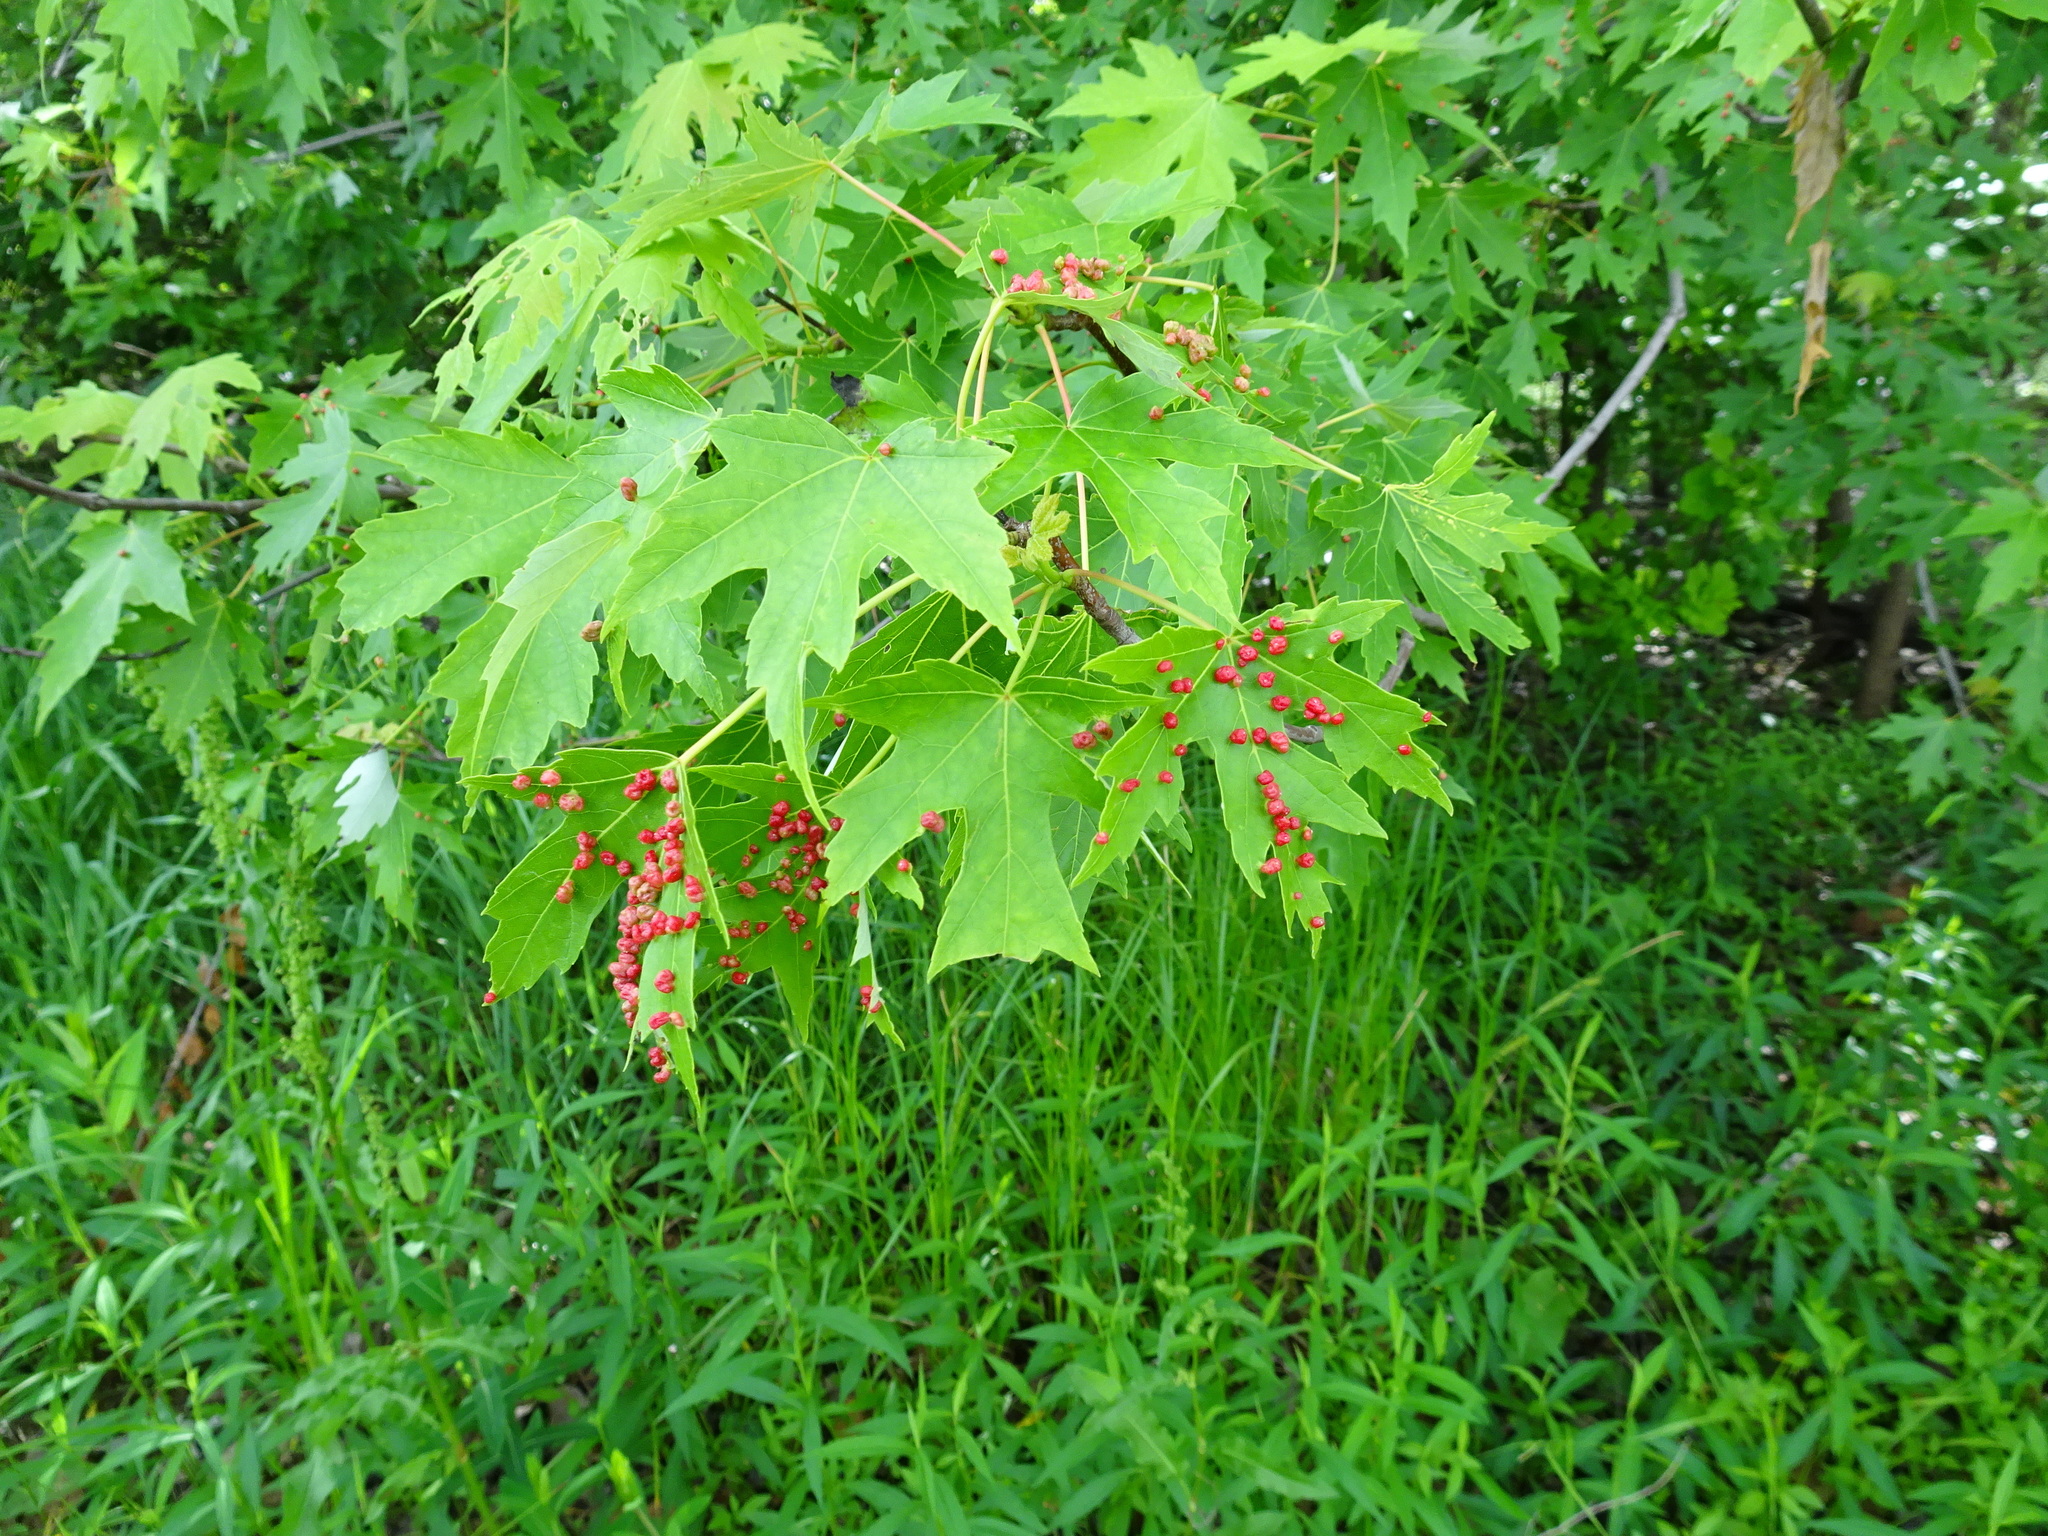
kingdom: Animalia
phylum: Arthropoda
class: Arachnida
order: Trombidiformes
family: Eriophyidae
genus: Vasates
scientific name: Vasates quadripedes
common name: Maple bladder gall mite
